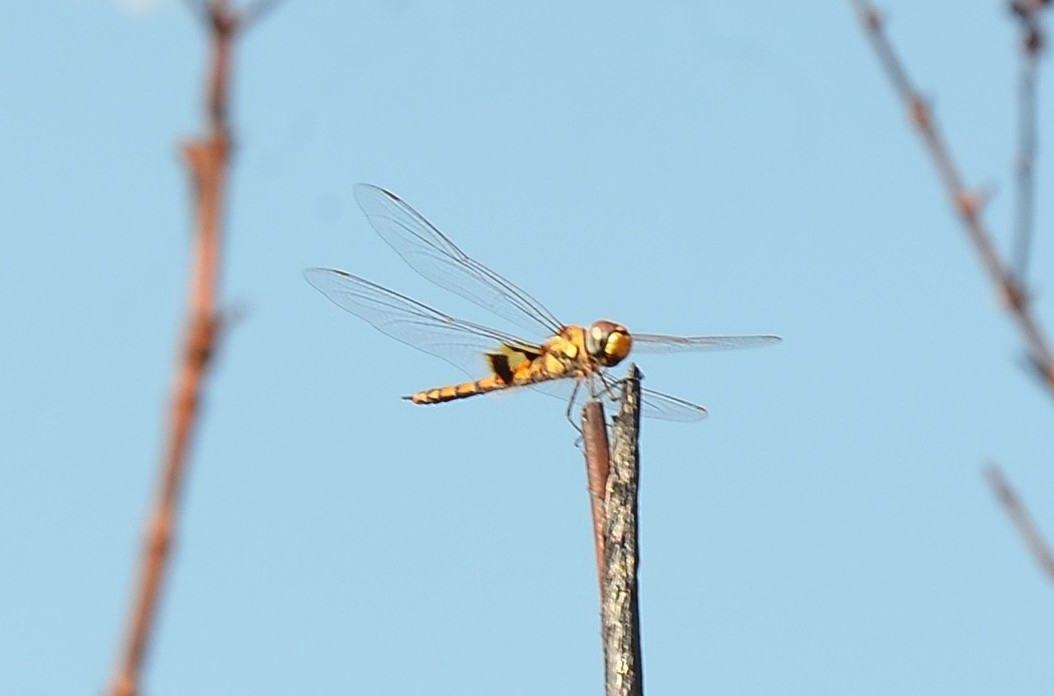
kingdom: Animalia
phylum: Arthropoda
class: Insecta
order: Odonata
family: Libellulidae
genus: Tramea
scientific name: Tramea basilaris
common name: Keyhole glider
